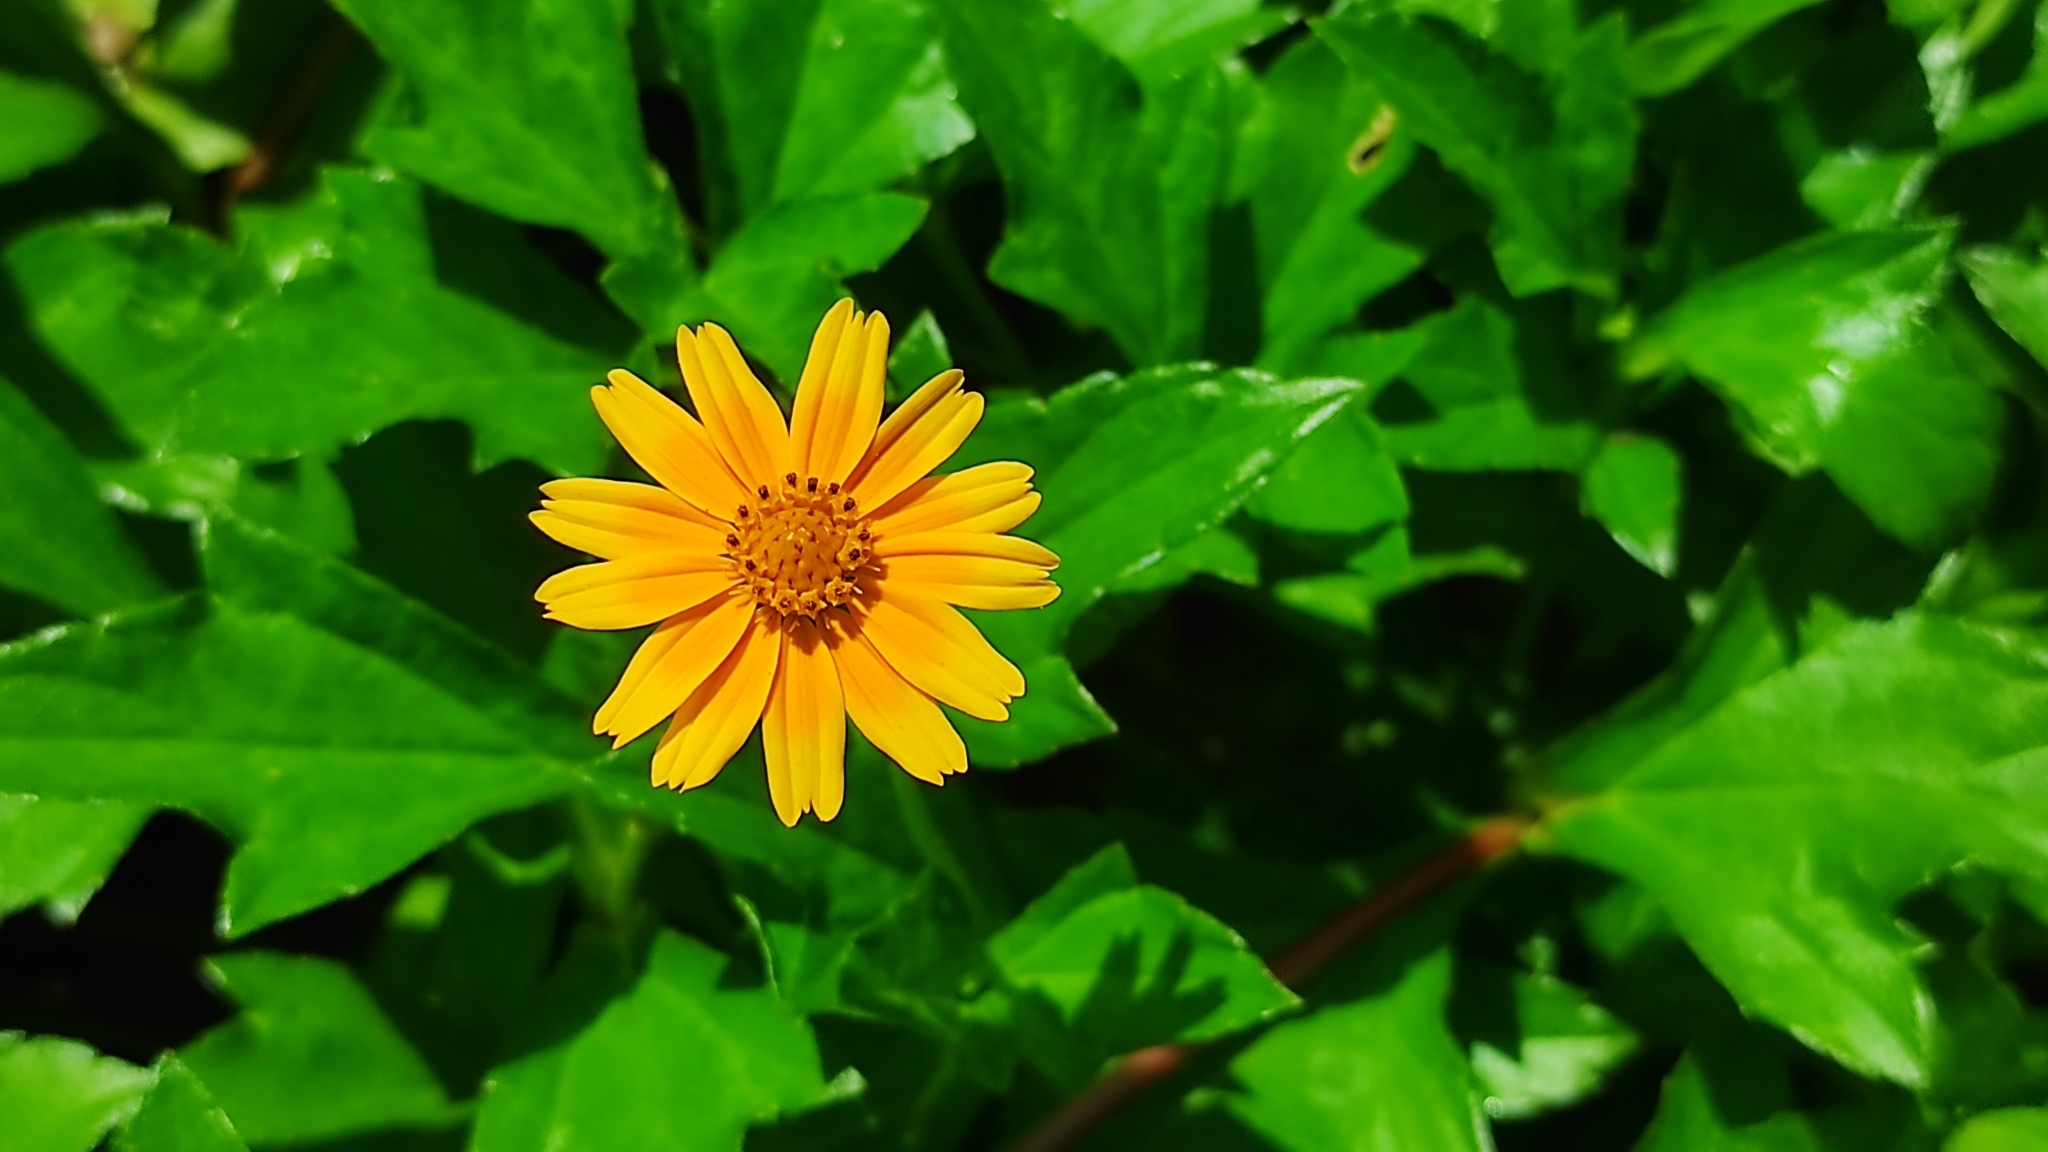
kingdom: Plantae
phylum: Tracheophyta
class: Magnoliopsida
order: Asterales
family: Asteraceae
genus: Sphagneticola
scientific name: Sphagneticola trilobata
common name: Bay biscayne creeping-oxeye
